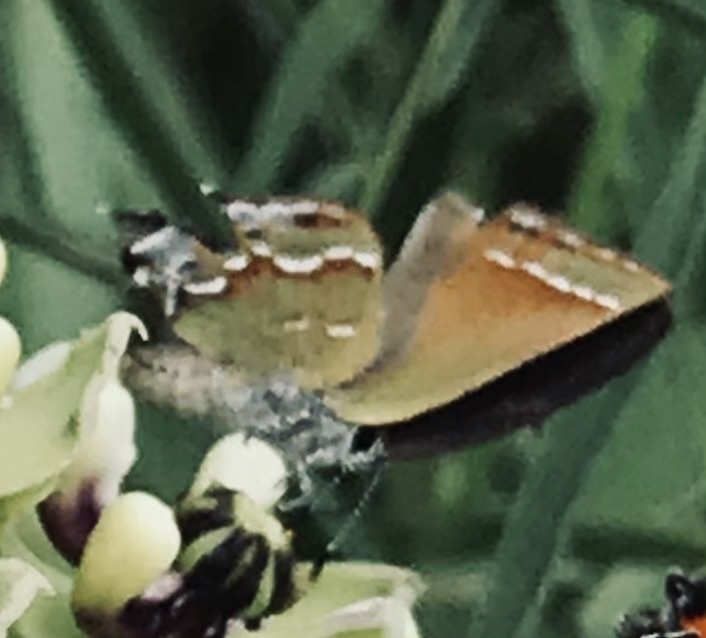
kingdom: Animalia
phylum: Arthropoda
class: Insecta
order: Lepidoptera
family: Lycaenidae
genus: Mitoura
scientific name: Mitoura gryneus
